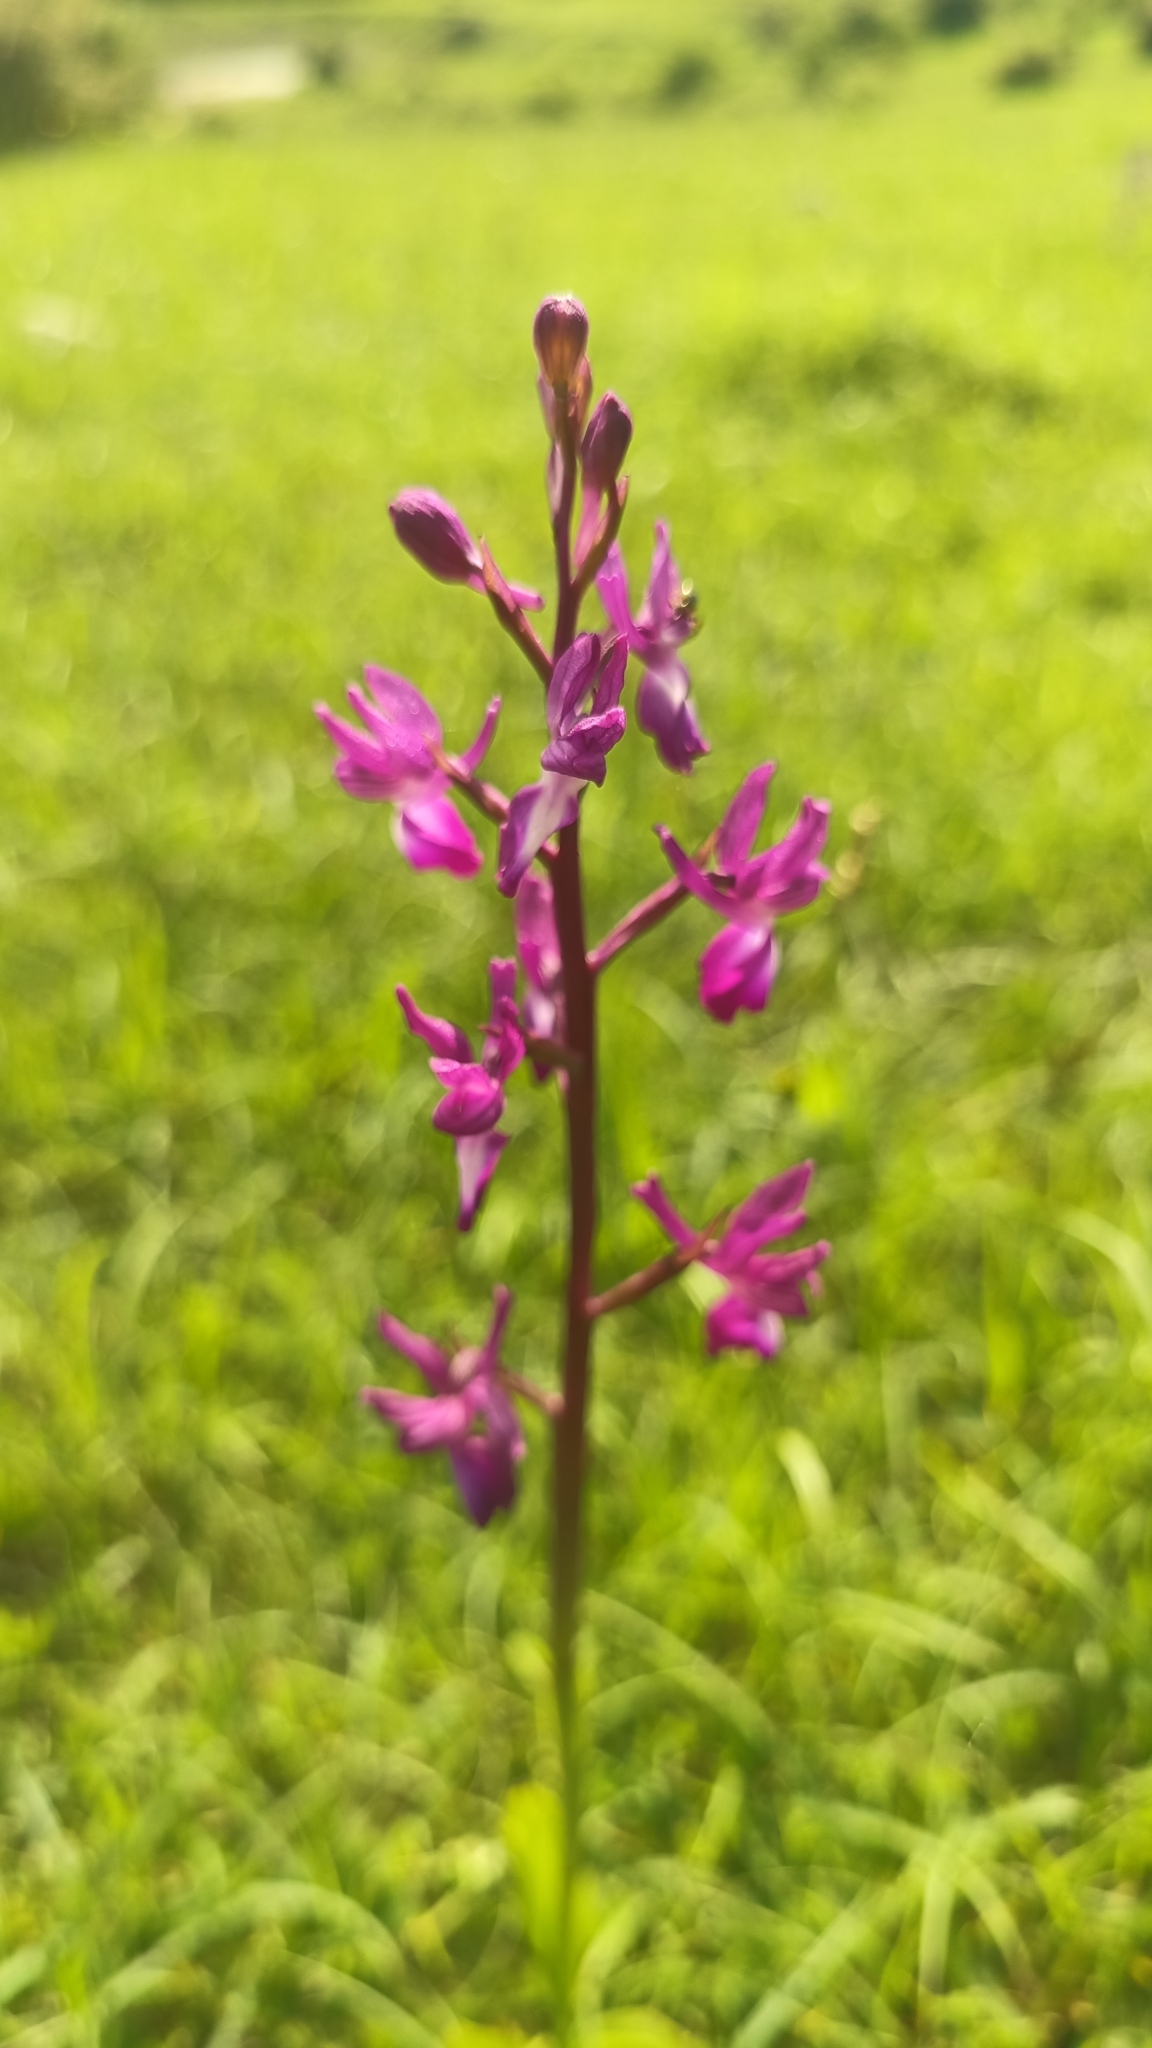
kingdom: Plantae
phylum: Tracheophyta
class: Liliopsida
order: Asparagales
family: Orchidaceae
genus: Anacamptis
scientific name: Anacamptis laxiflora
